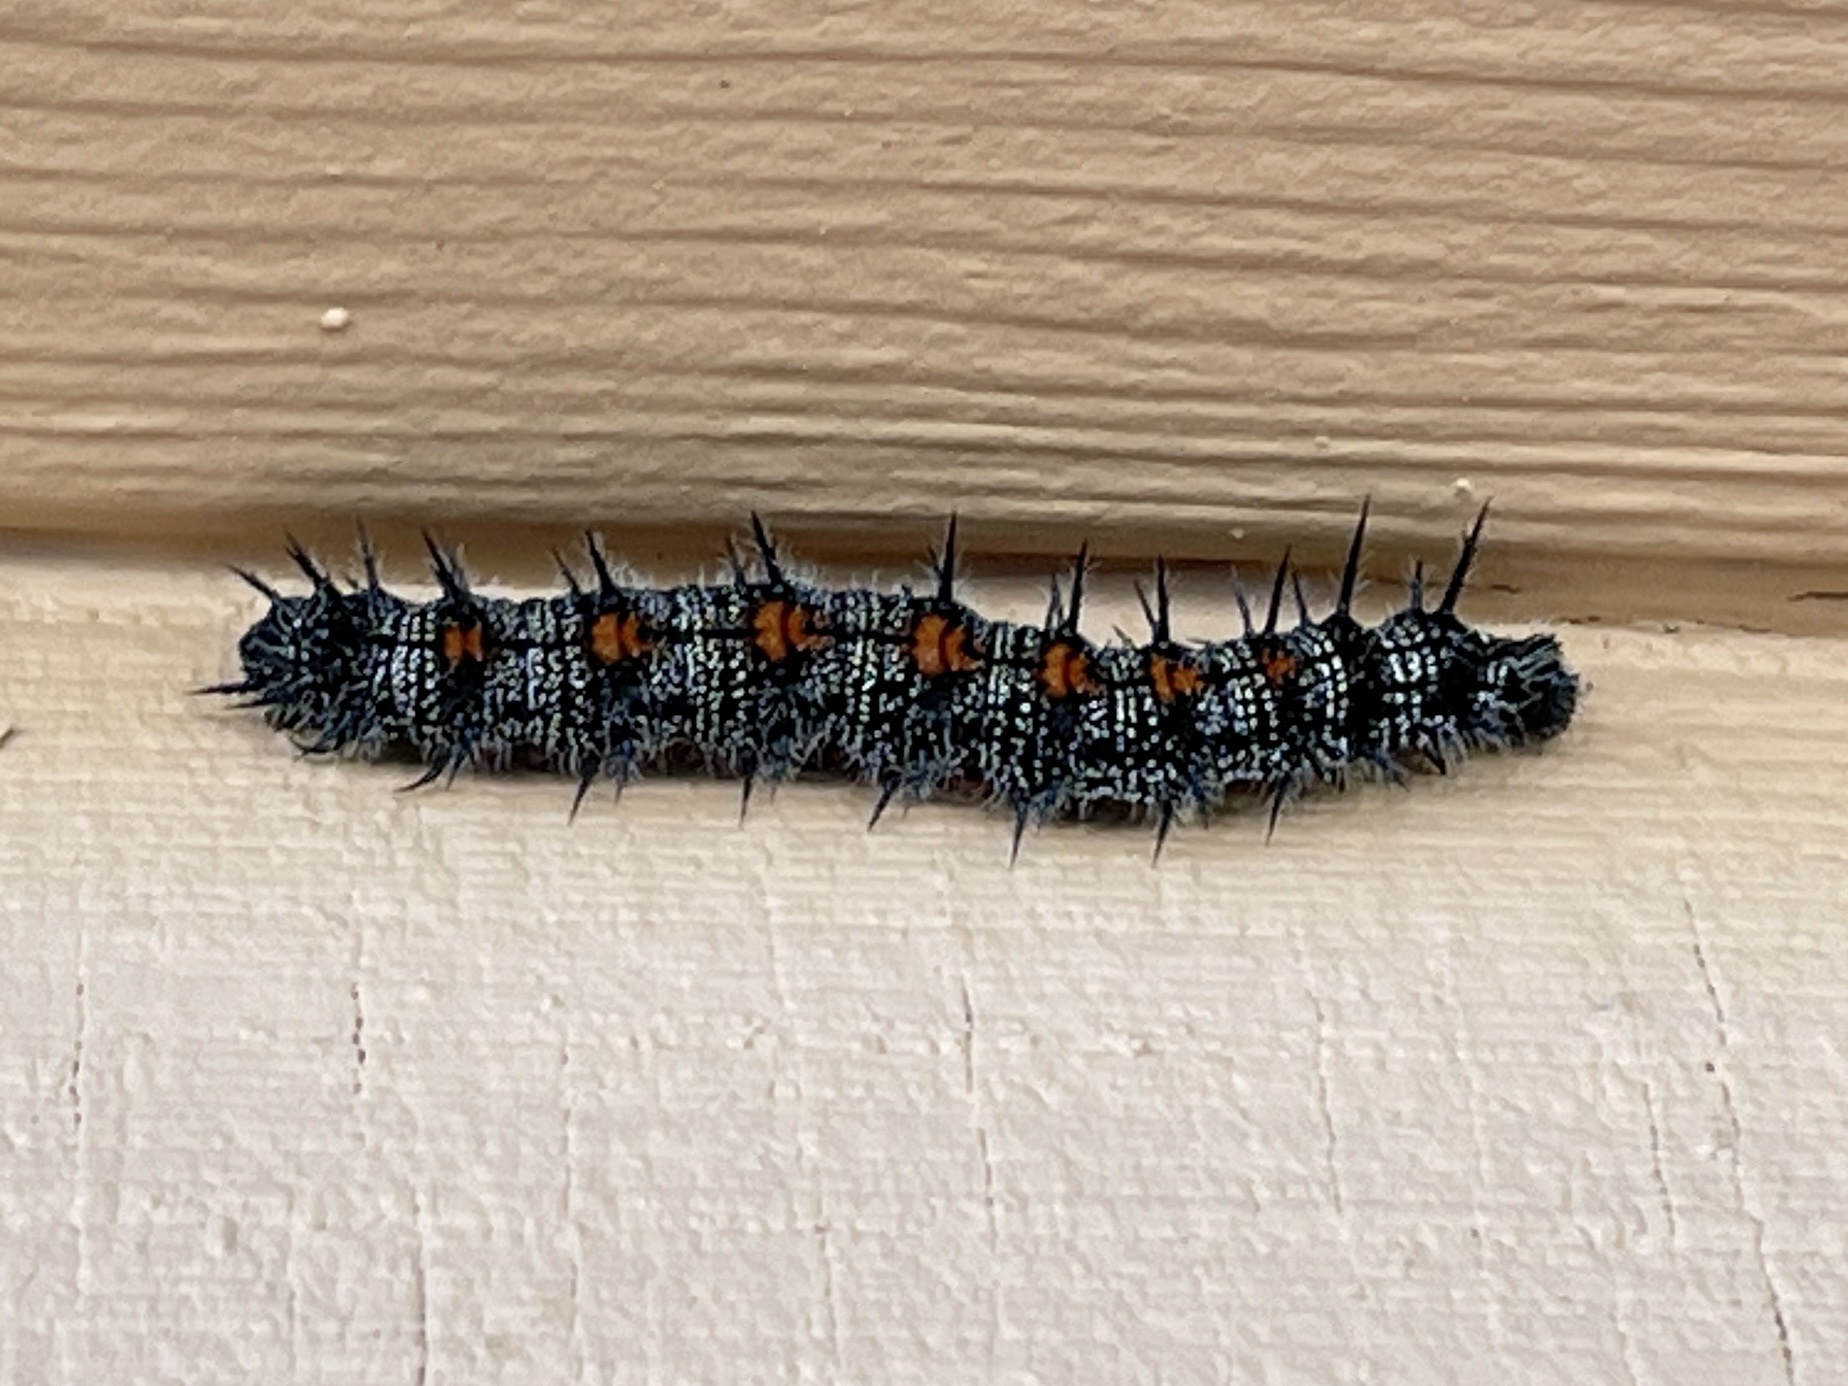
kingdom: Animalia
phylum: Arthropoda
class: Insecta
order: Lepidoptera
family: Nymphalidae
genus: Nymphalis
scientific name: Nymphalis antiopa
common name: Camberwell beauty
